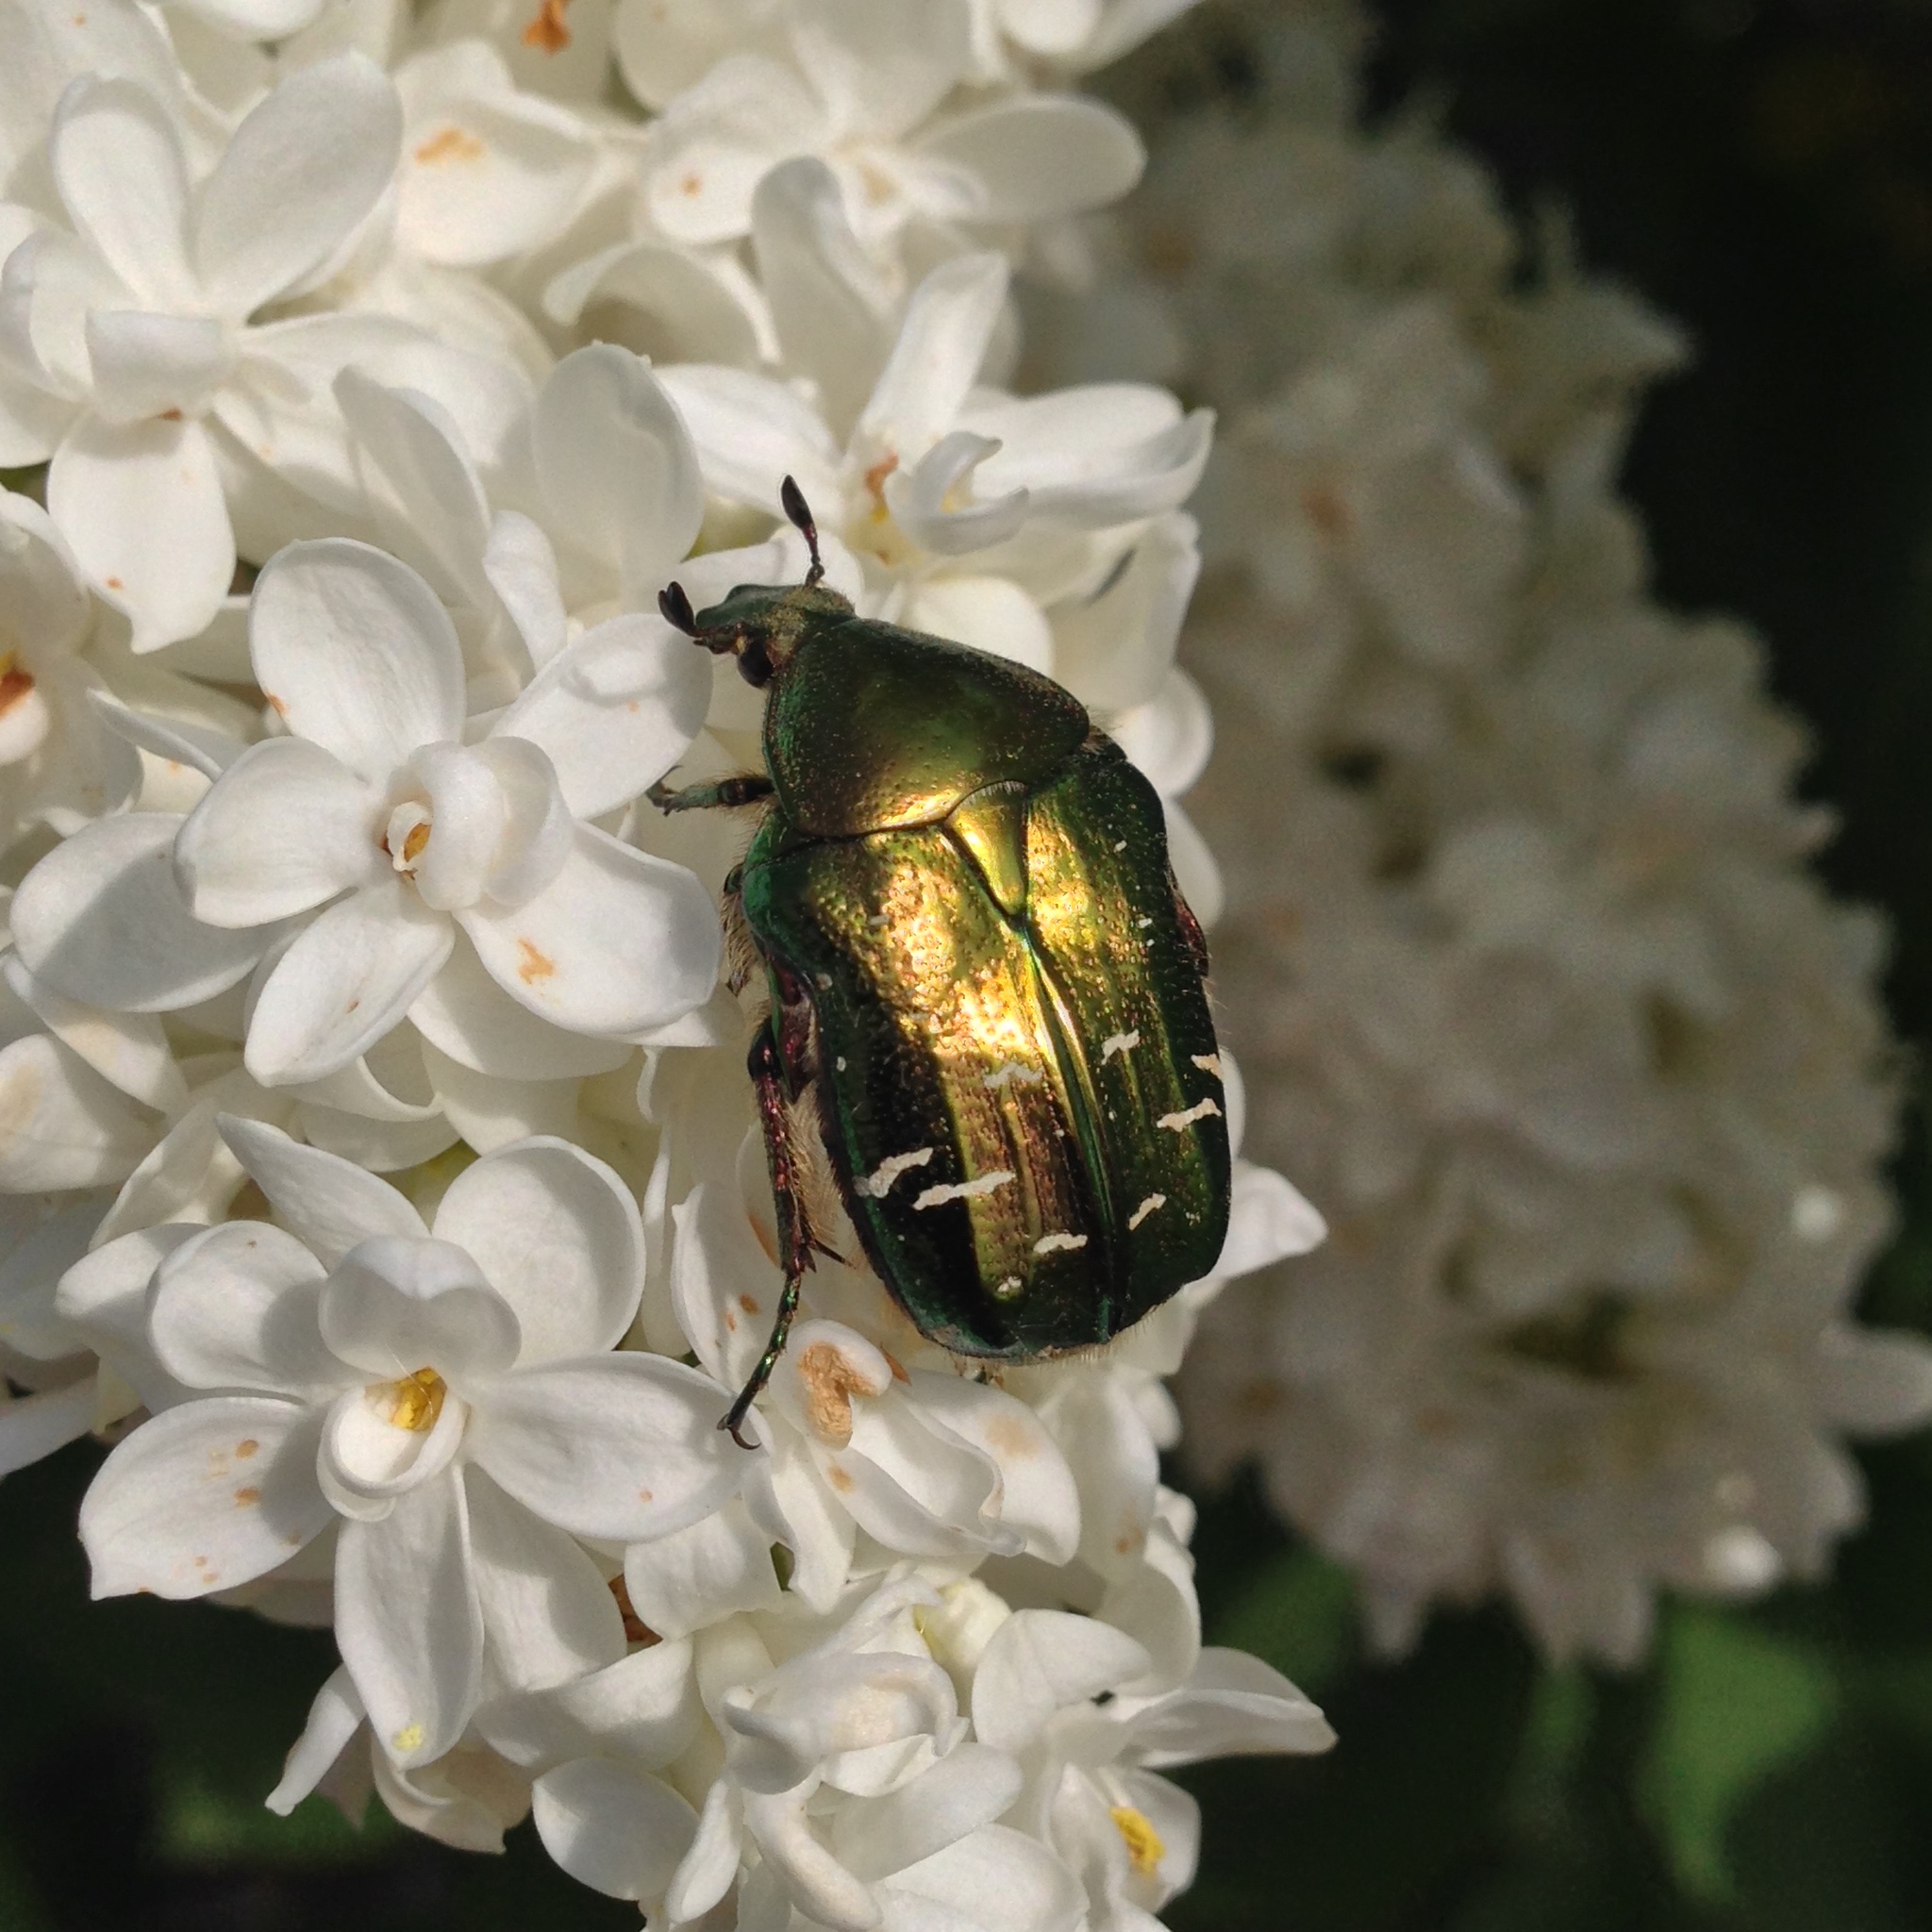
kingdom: Animalia
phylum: Arthropoda
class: Insecta
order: Coleoptera
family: Scarabaeidae
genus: Cetonia
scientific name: Cetonia aurata
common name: Rose chafer
